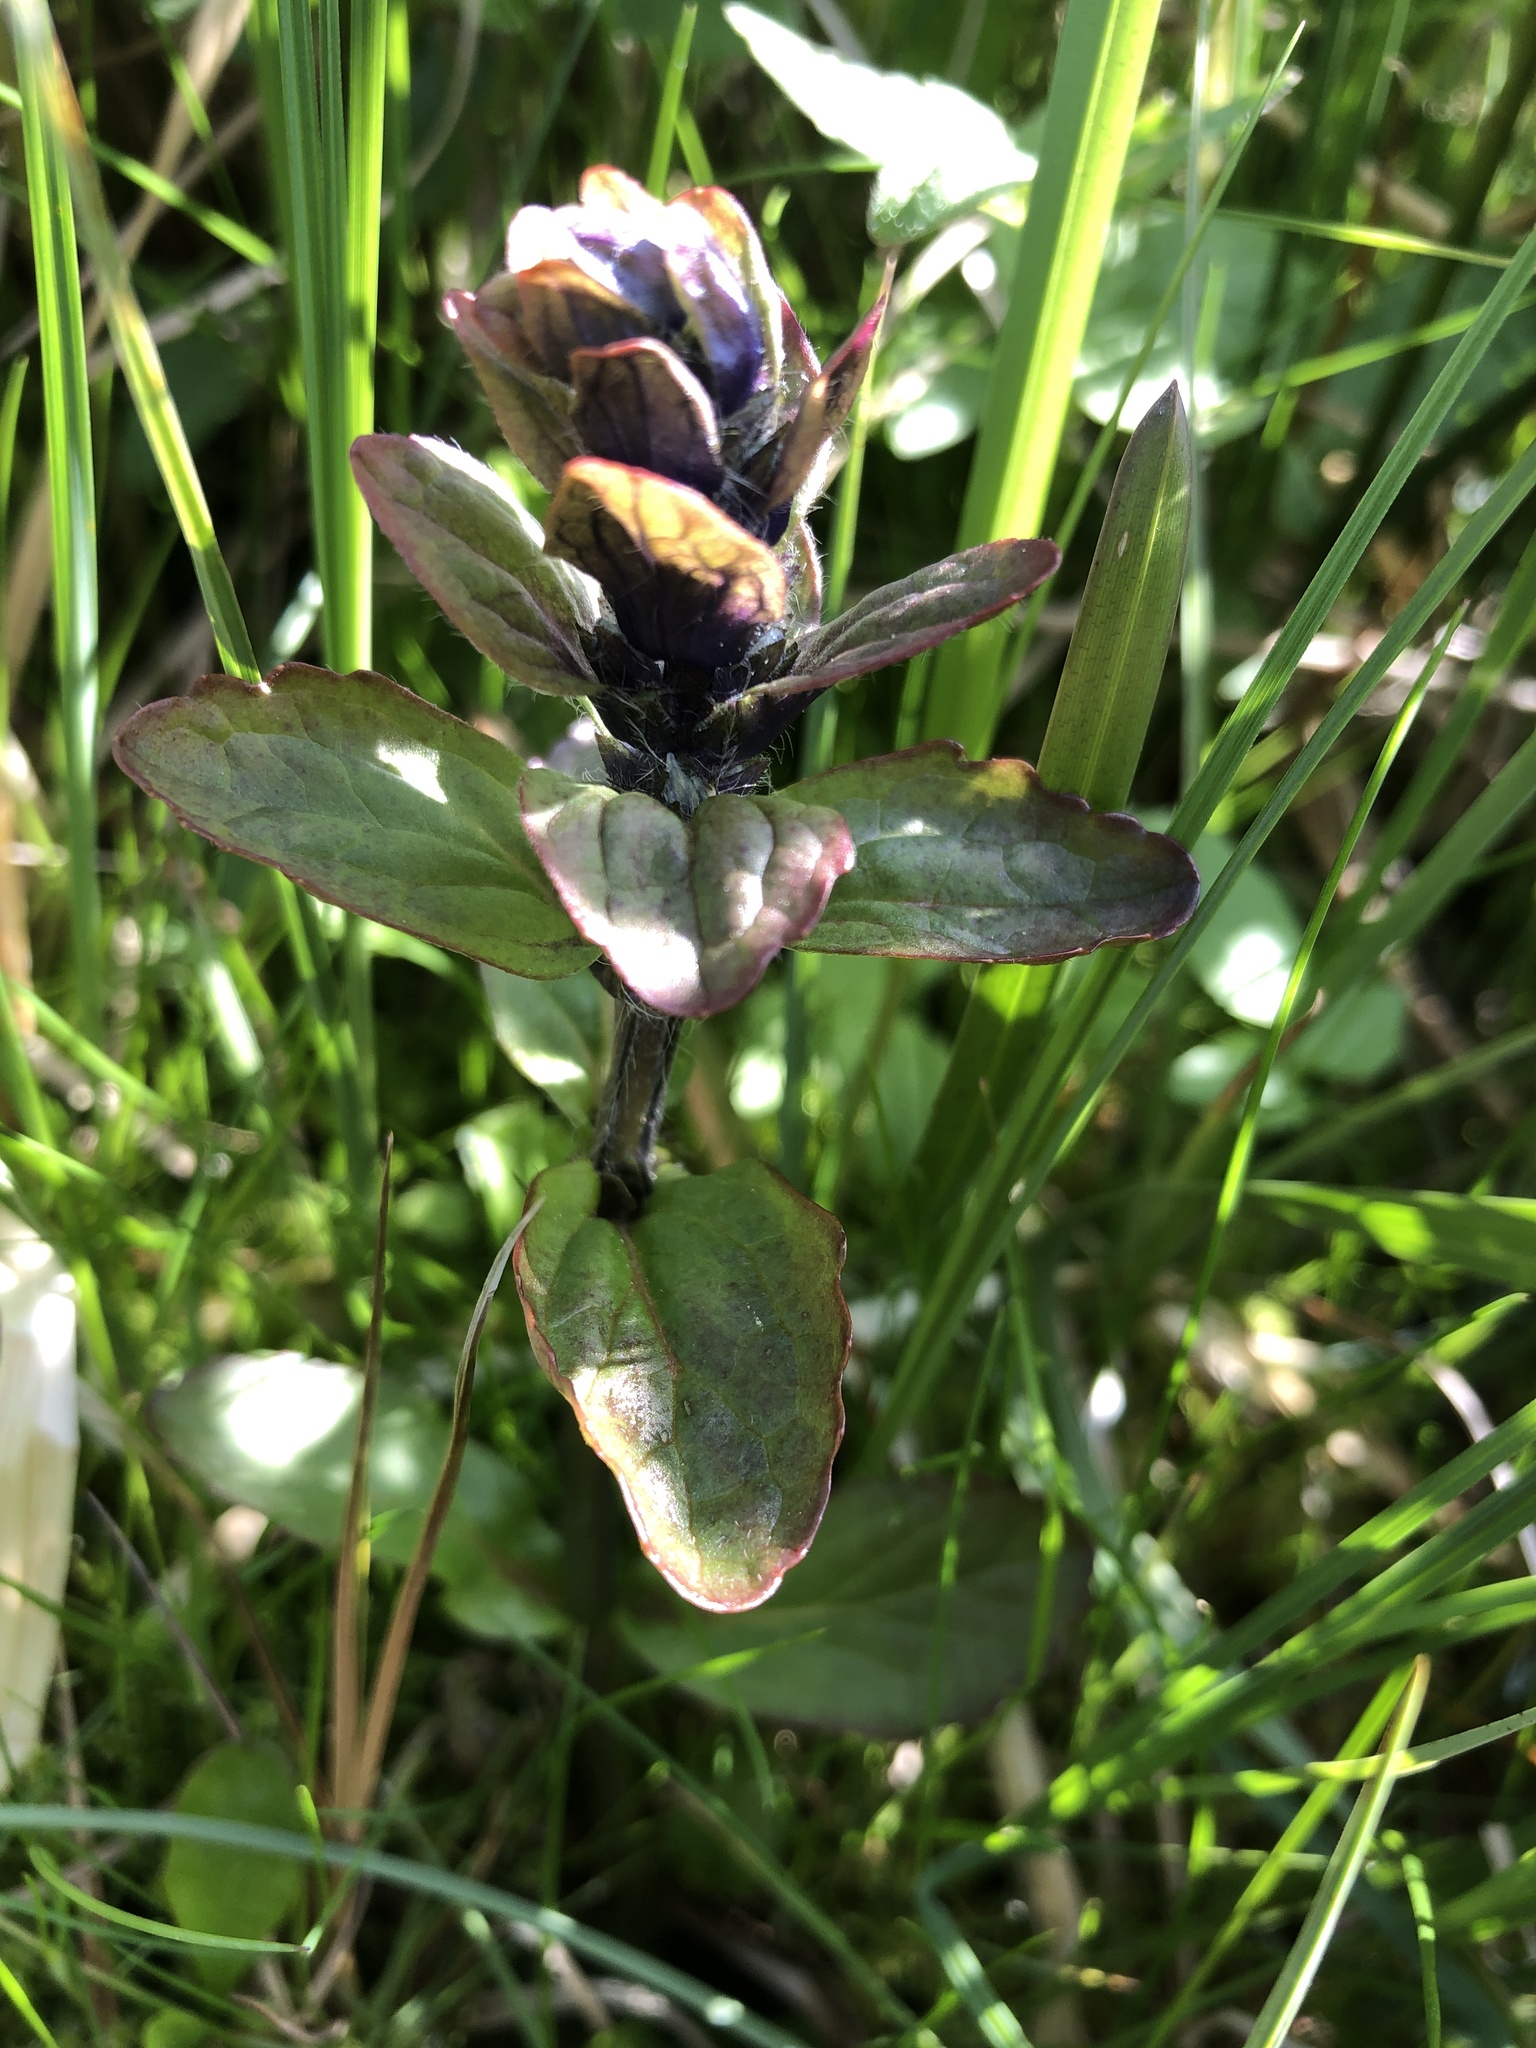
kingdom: Plantae
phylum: Tracheophyta
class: Magnoliopsida
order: Lamiales
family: Lamiaceae
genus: Ajuga
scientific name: Ajuga reptans
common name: Bugle
